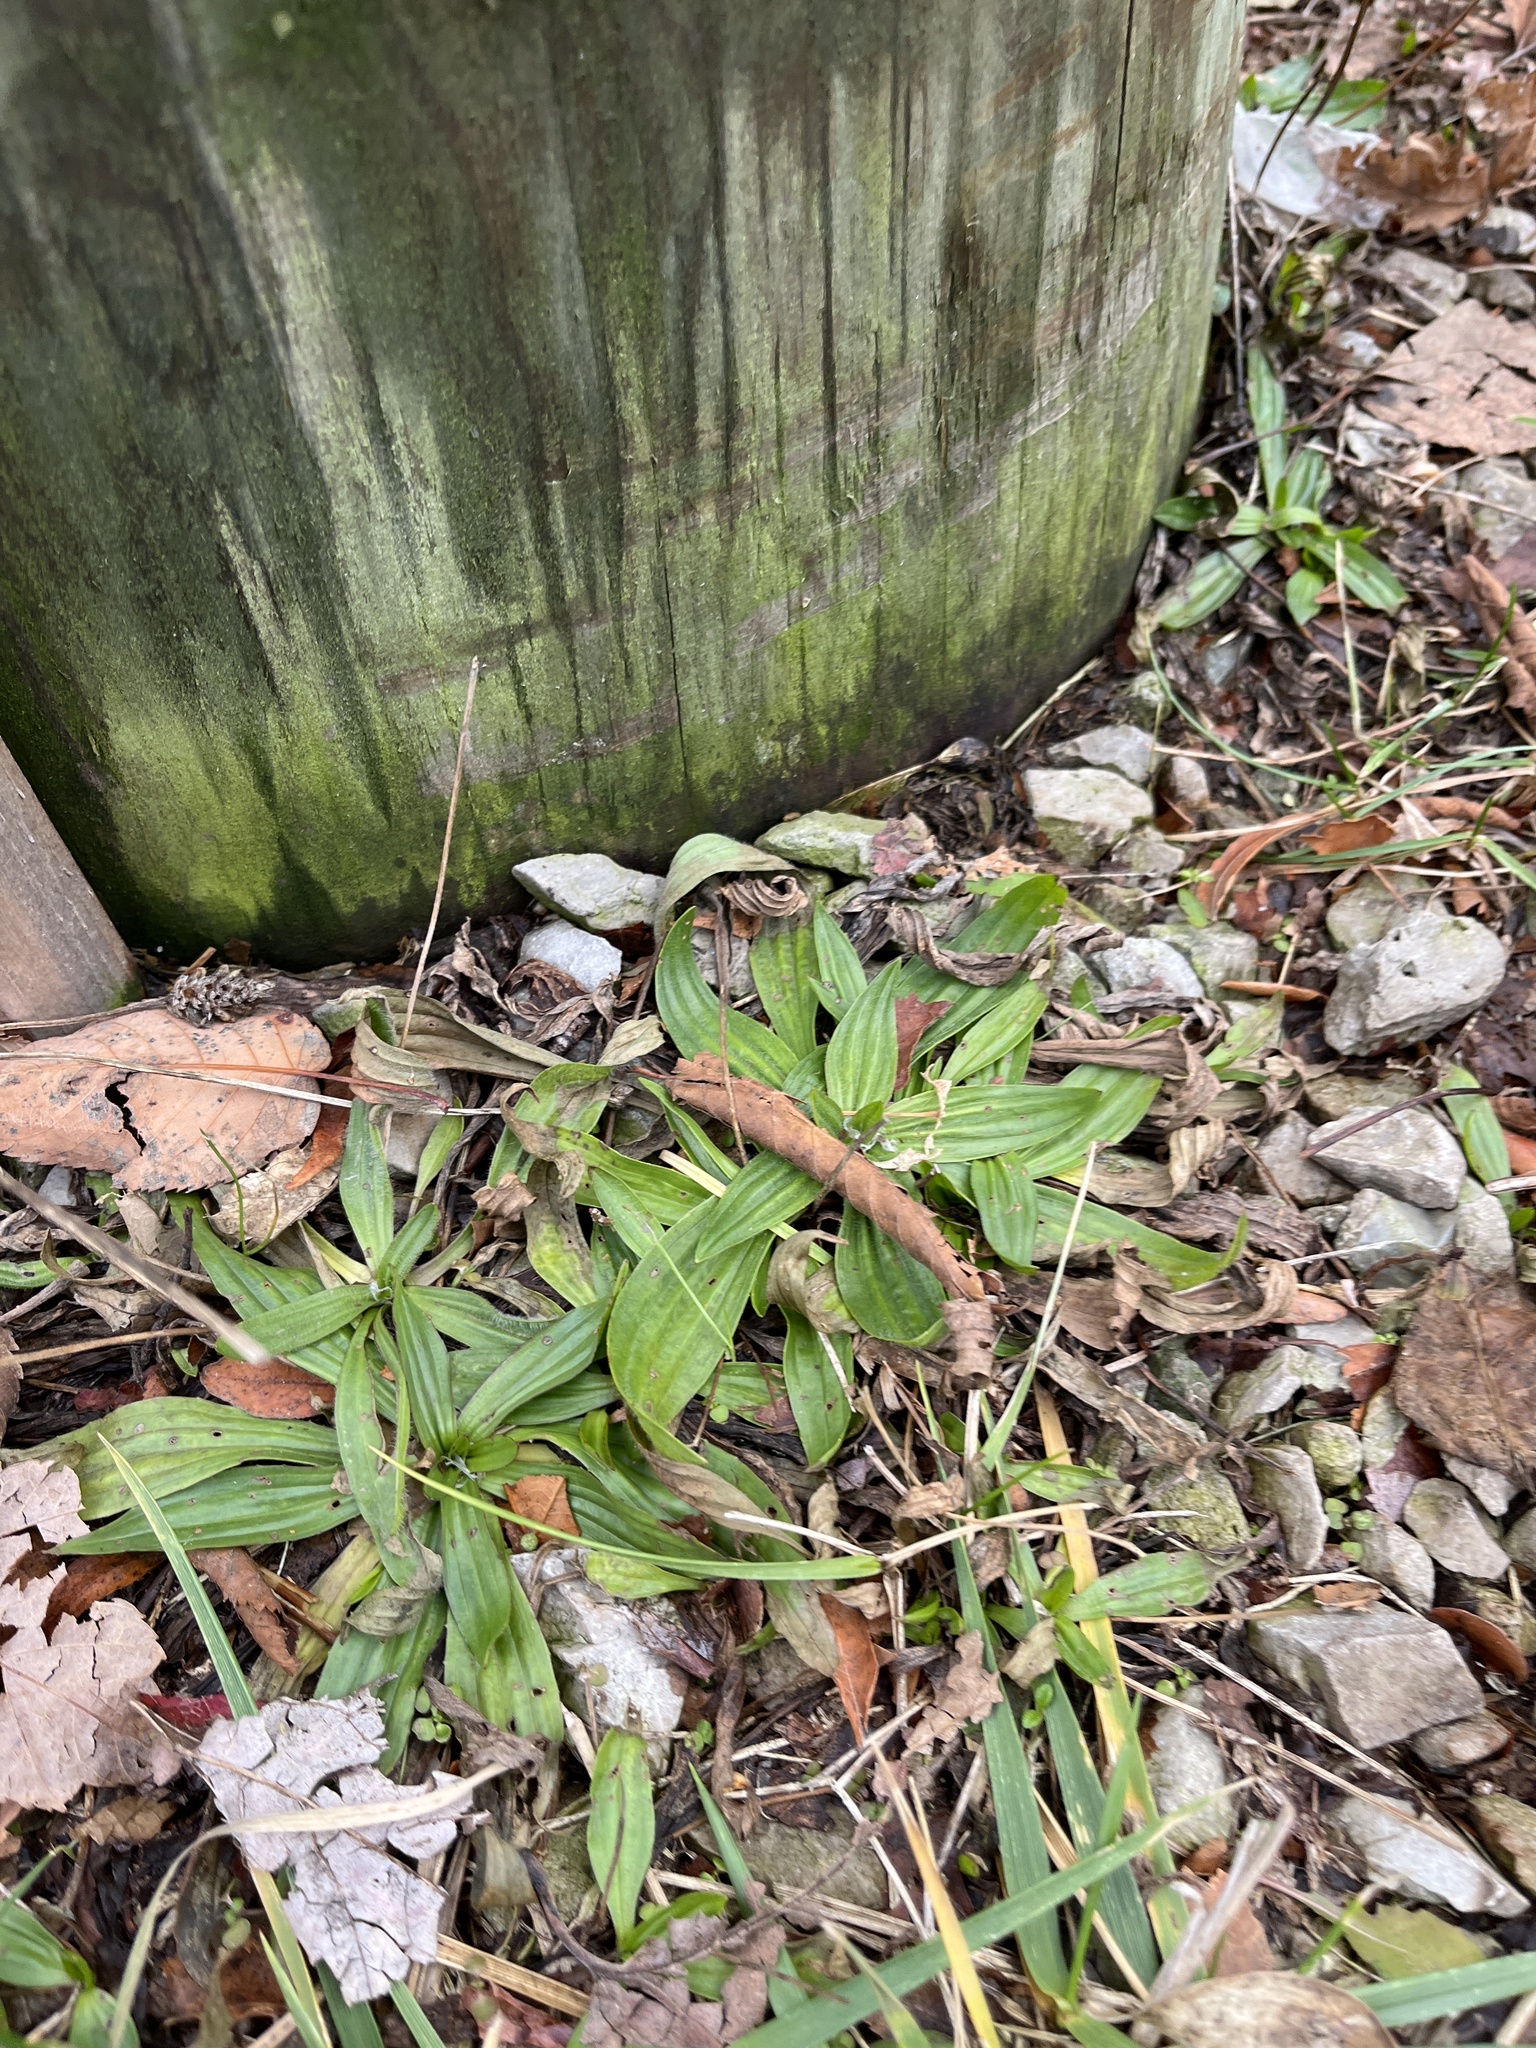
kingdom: Plantae
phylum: Tracheophyta
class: Magnoliopsida
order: Lamiales
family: Plantaginaceae
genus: Plantago
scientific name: Plantago lanceolata
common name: Ribwort plantain
